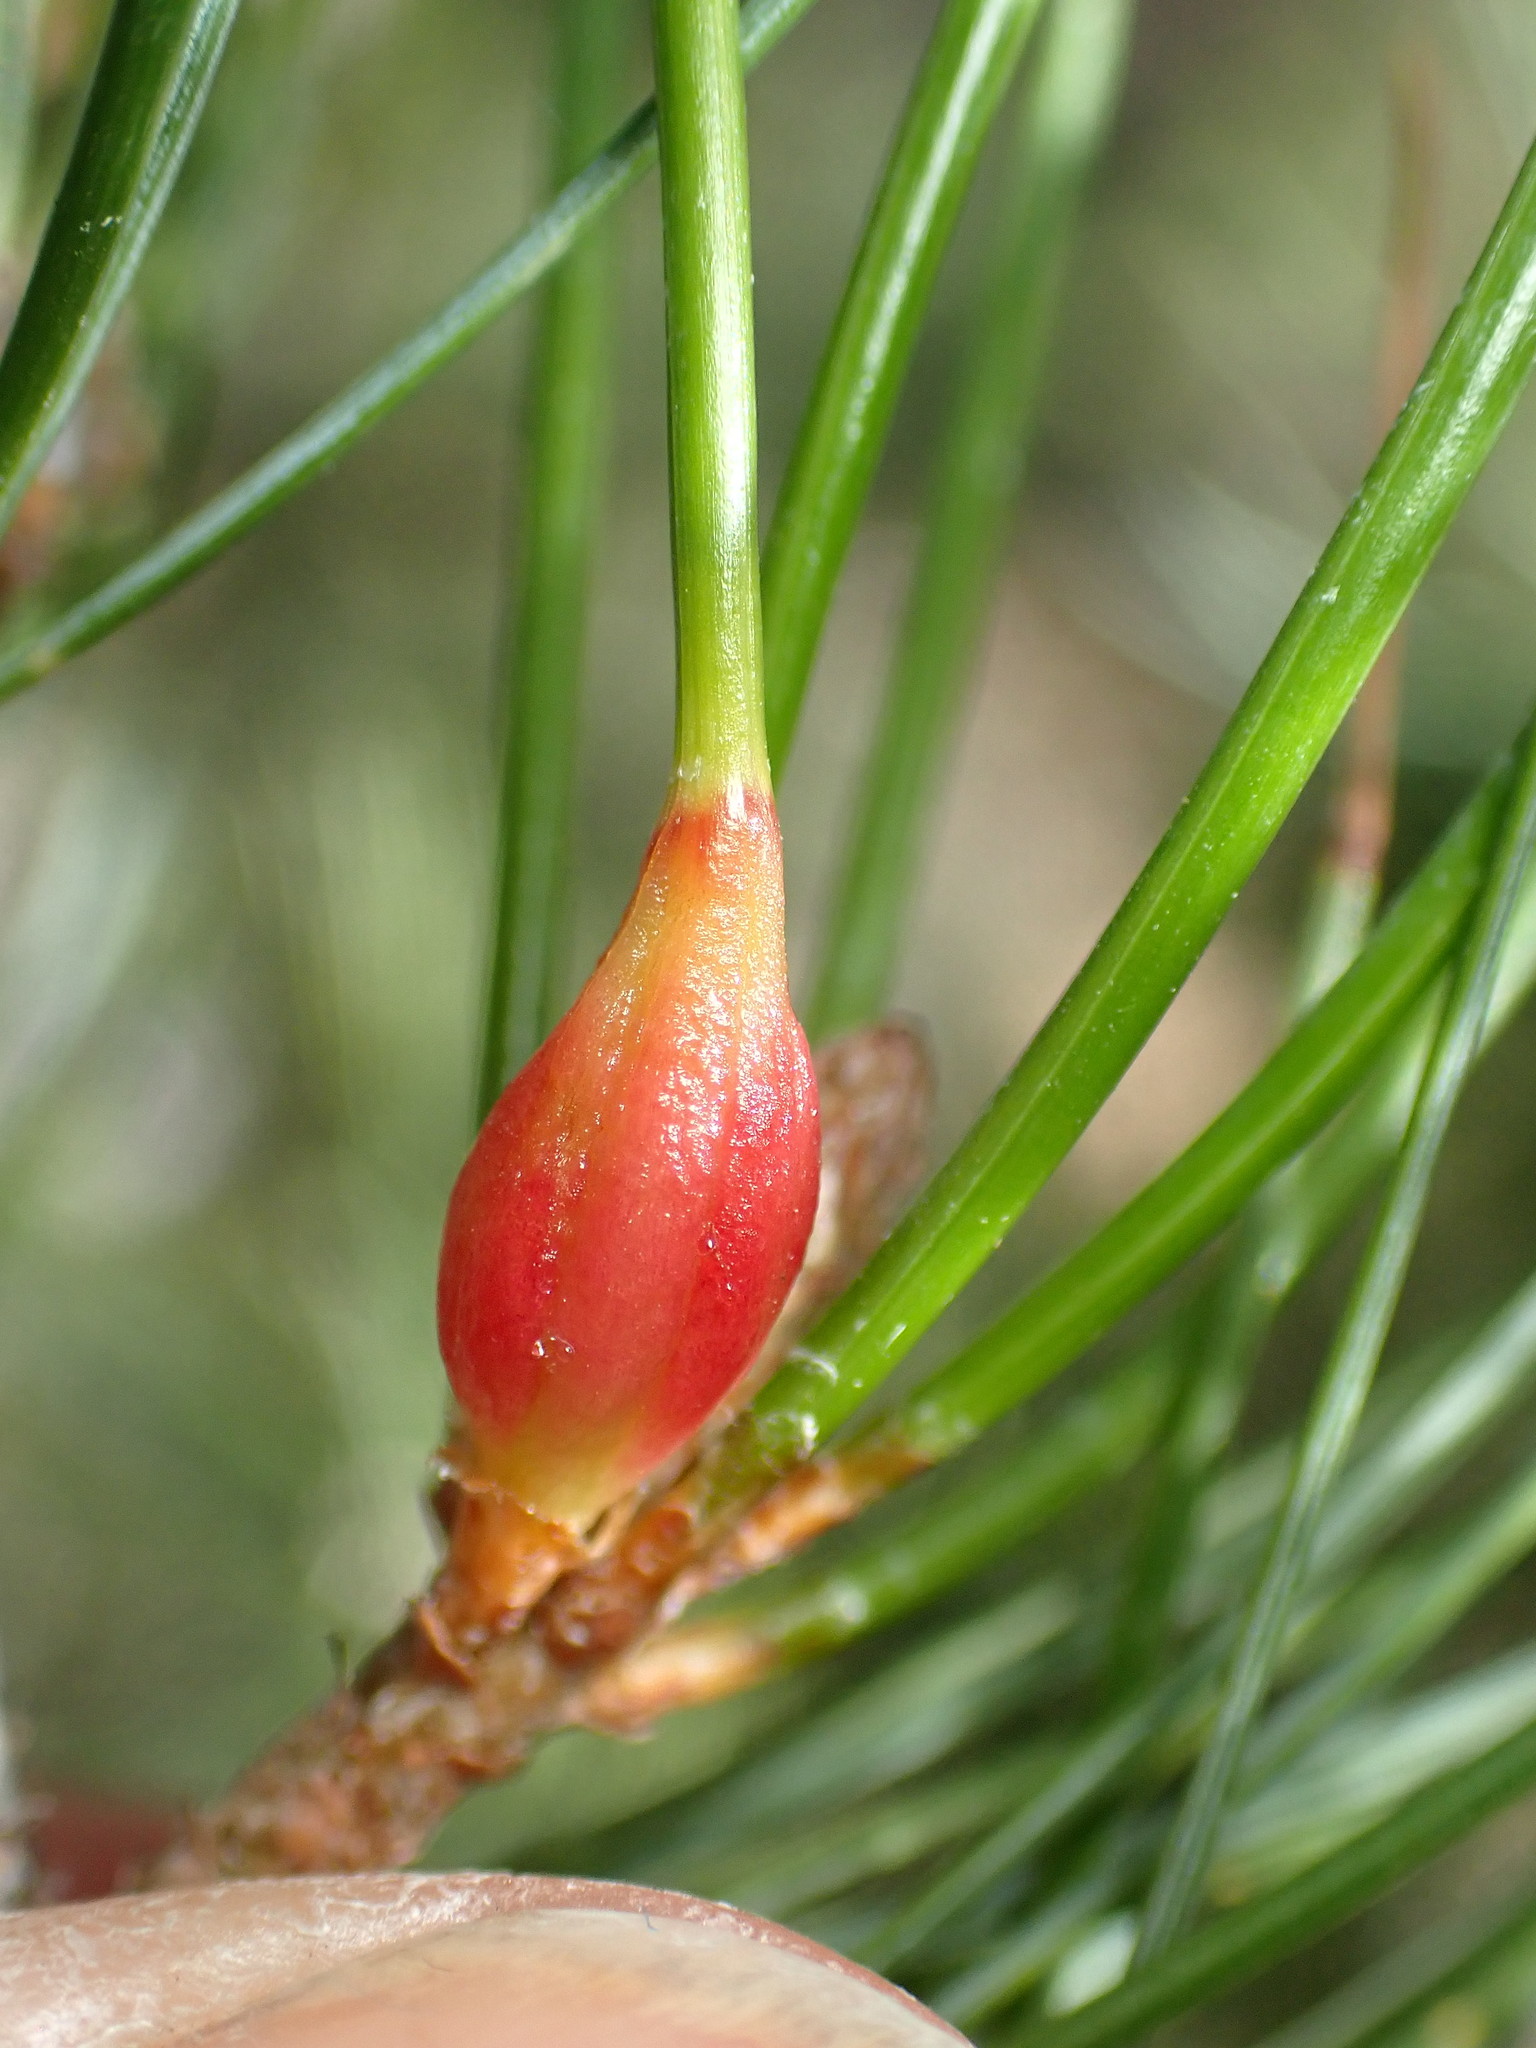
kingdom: Animalia
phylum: Arthropoda
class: Insecta
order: Diptera
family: Cecidomyiidae
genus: Pinyonia
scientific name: Pinyonia edulicola
